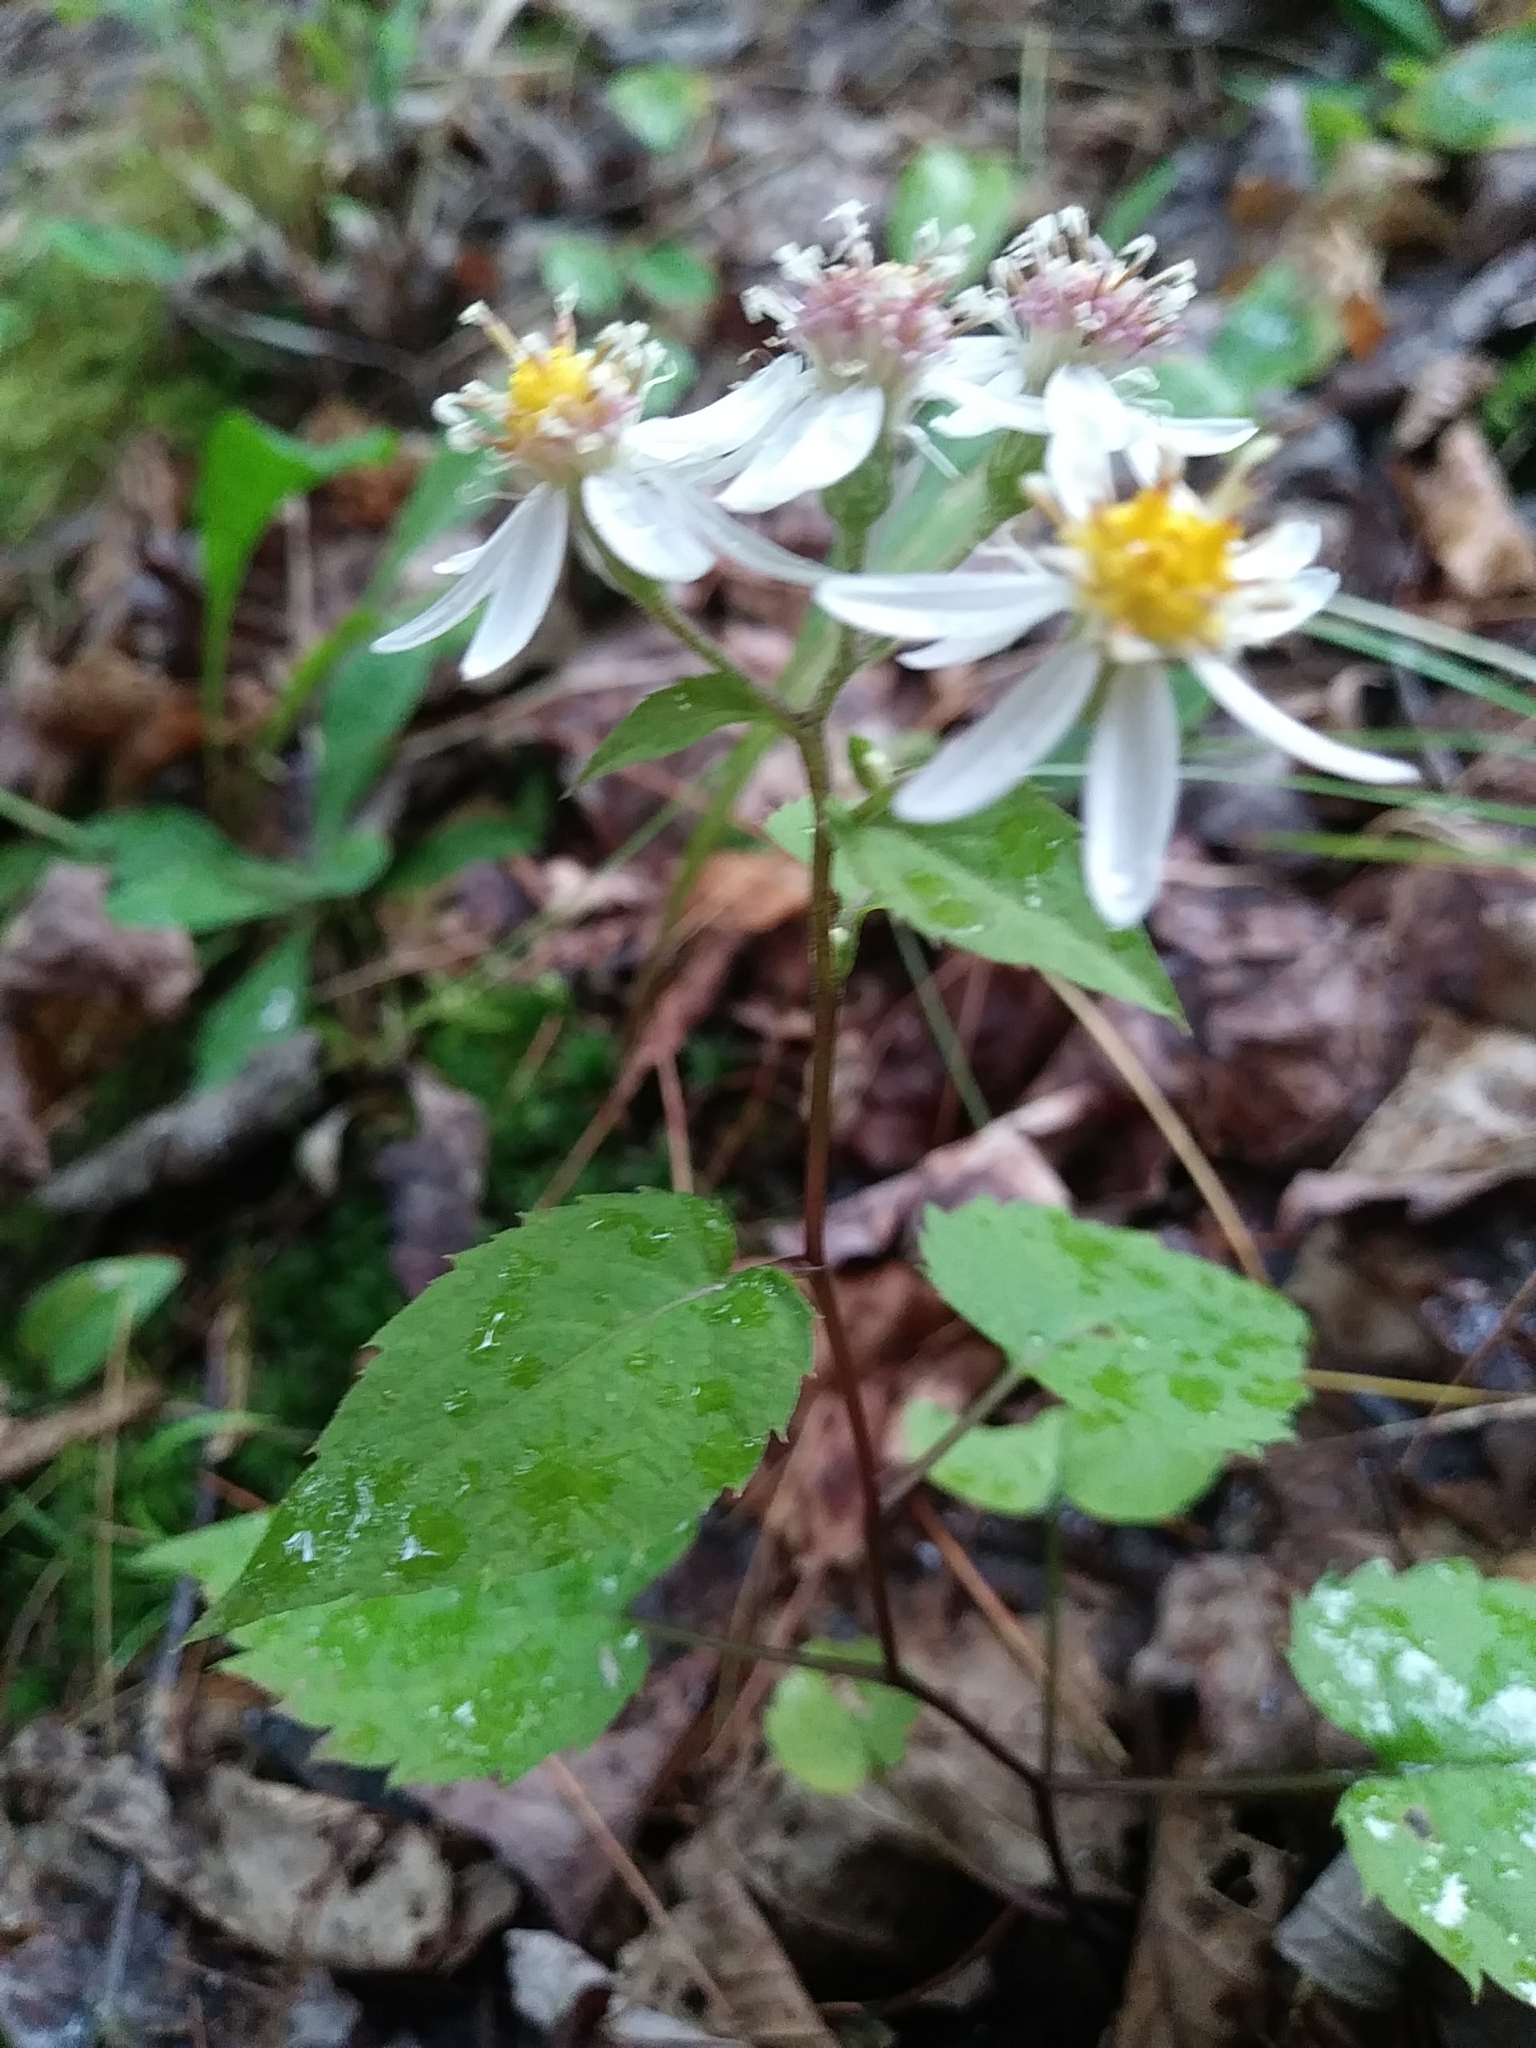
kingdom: Plantae
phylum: Tracheophyta
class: Magnoliopsida
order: Asterales
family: Asteraceae
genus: Eurybia
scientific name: Eurybia divaricata
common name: White wood aster
